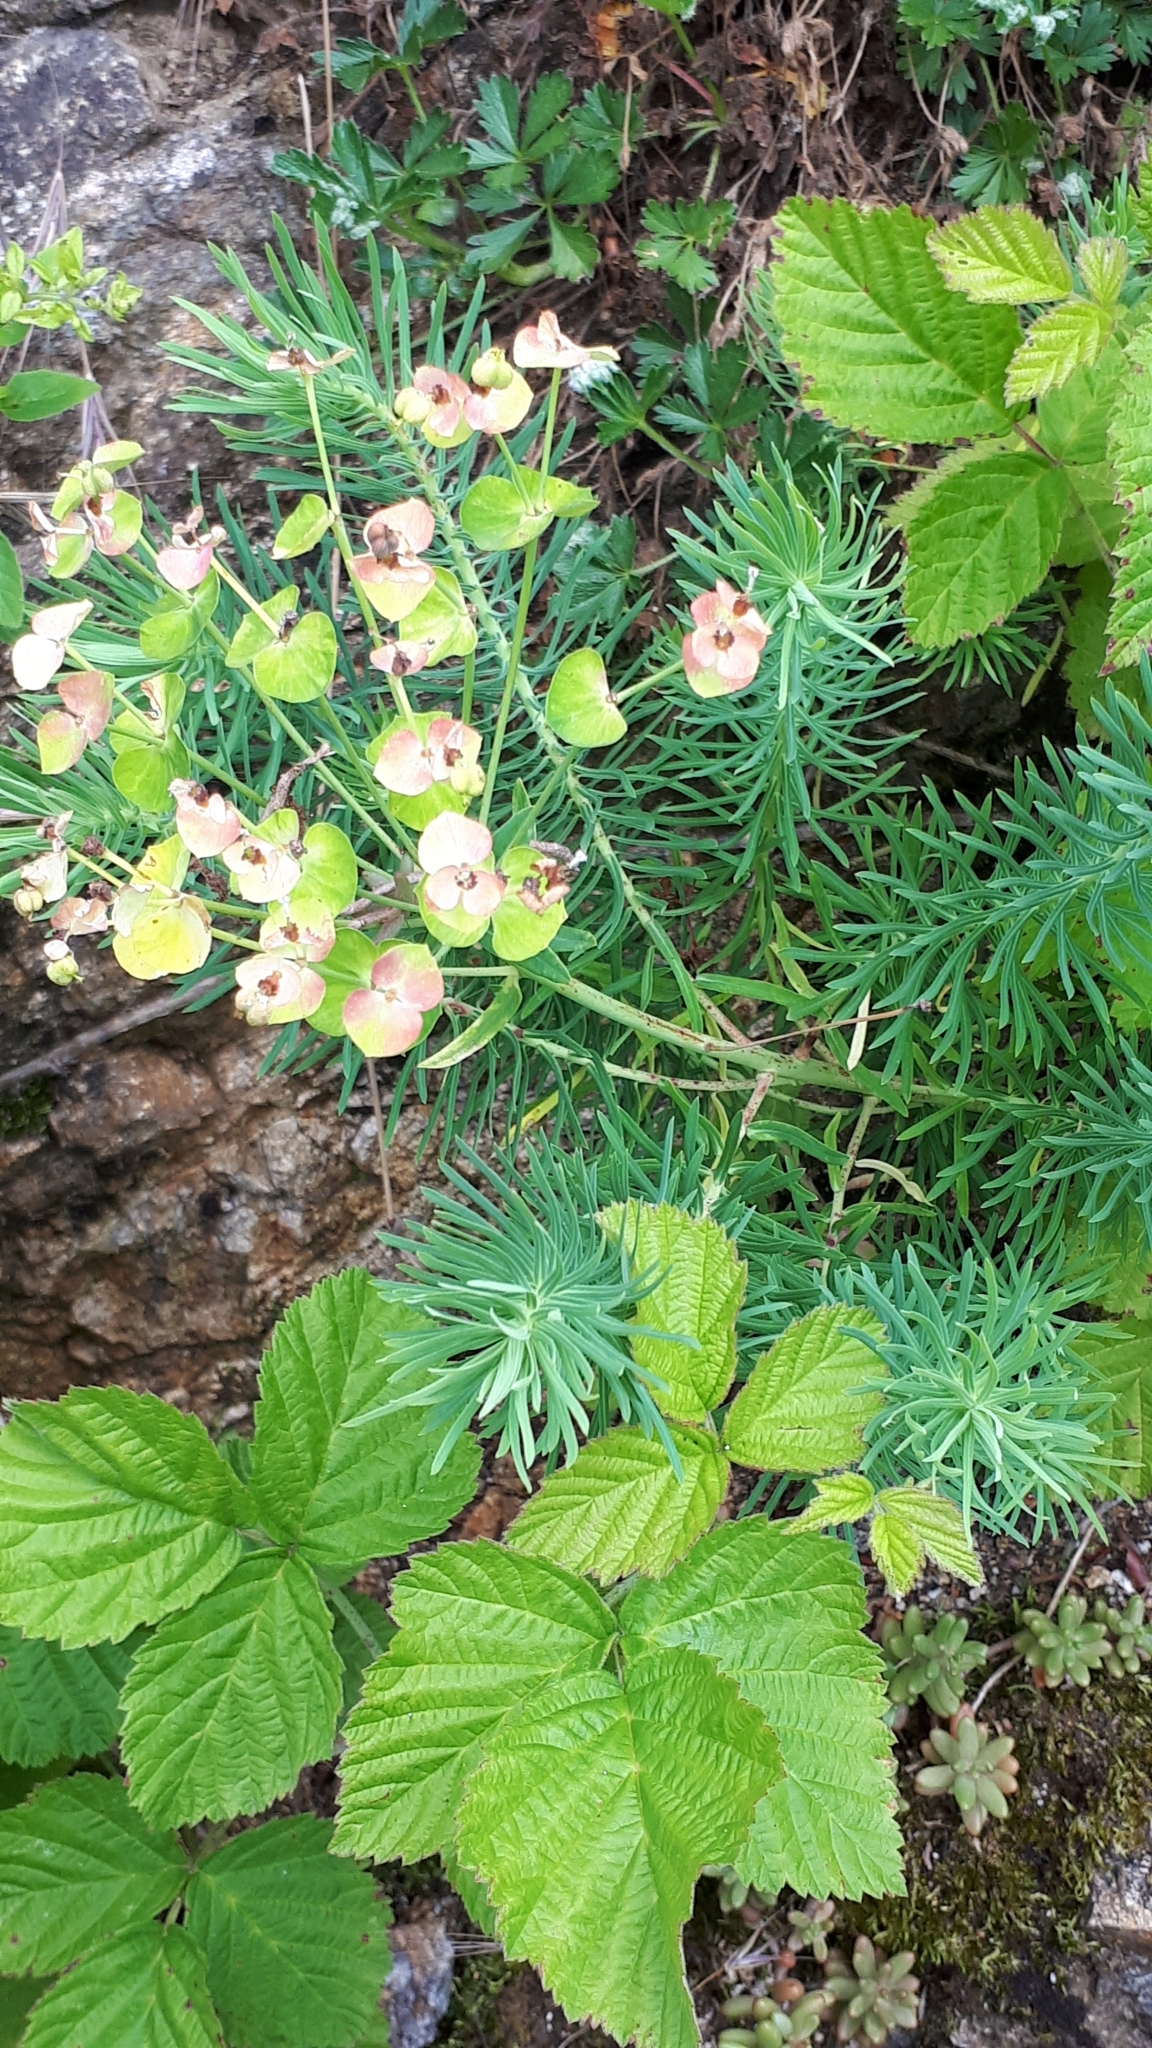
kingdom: Plantae
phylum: Tracheophyta
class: Magnoliopsida
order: Malpighiales
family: Euphorbiaceae
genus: Euphorbia
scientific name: Euphorbia cyparissias
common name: Cypress spurge
